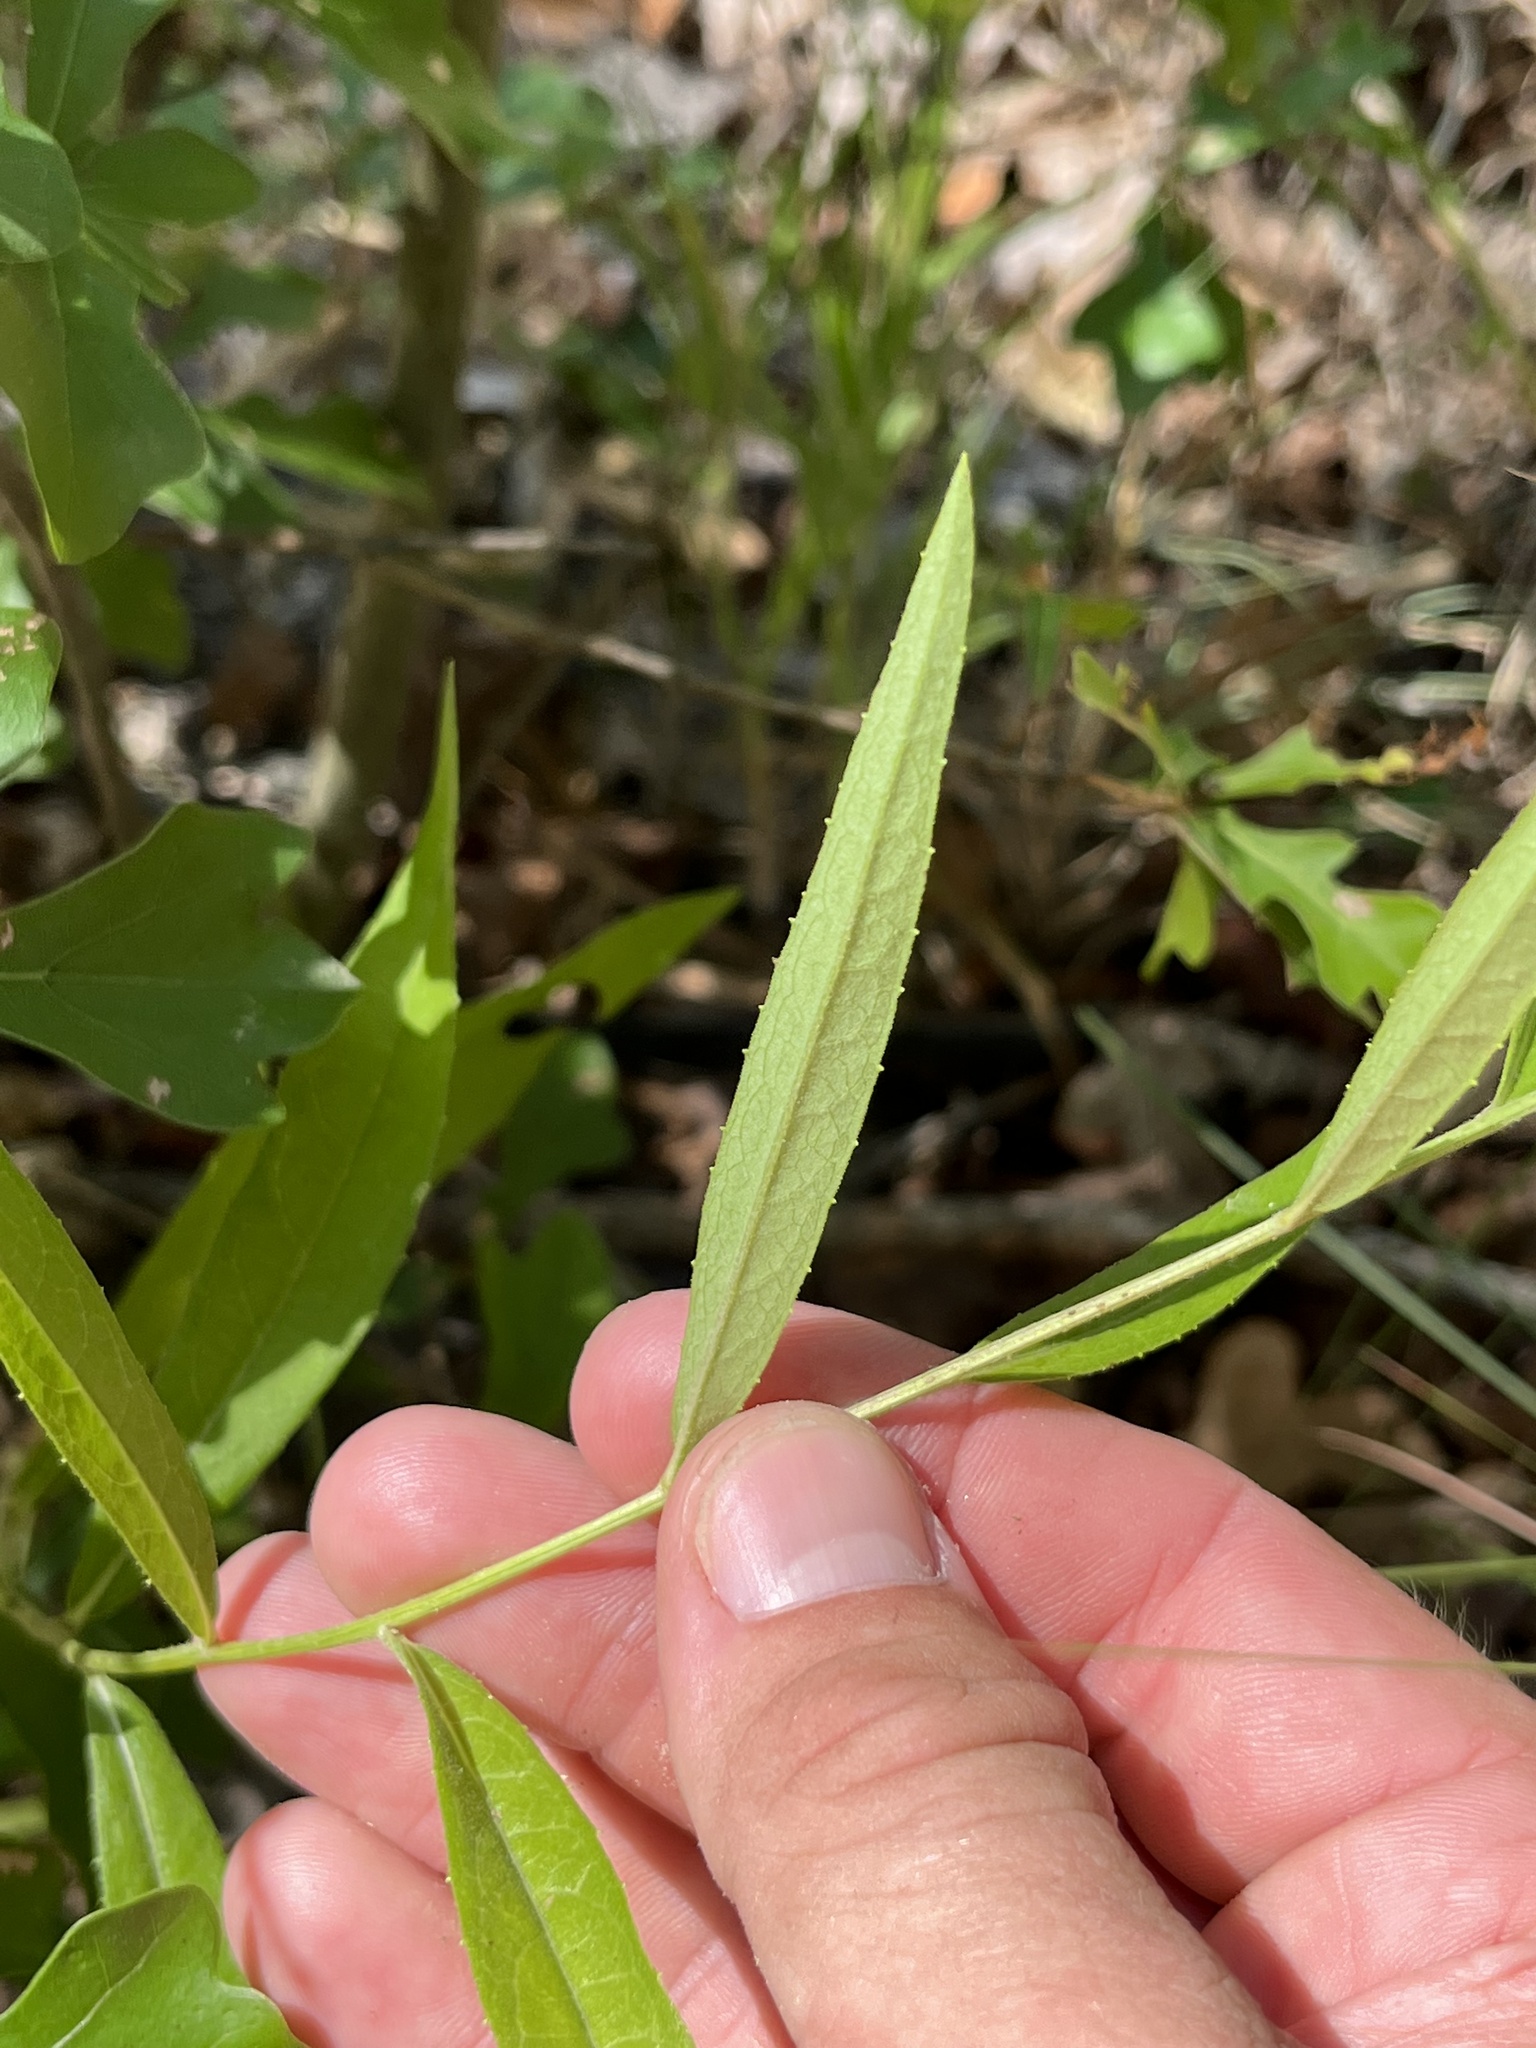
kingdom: Plantae
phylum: Tracheophyta
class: Magnoliopsida
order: Asterales
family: Asteraceae
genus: Vernonia
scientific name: Vernonia texana
